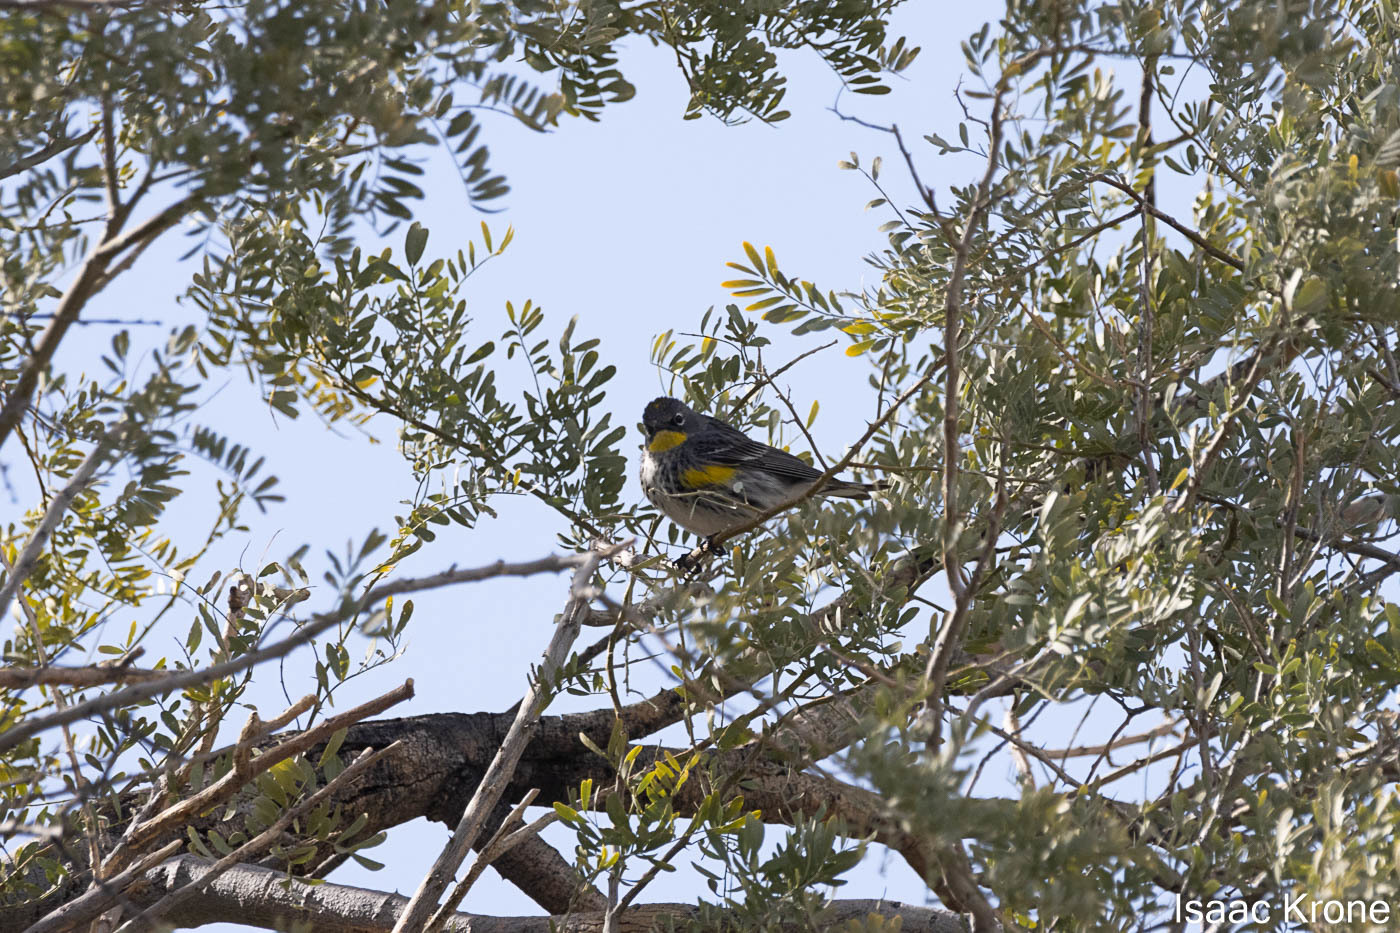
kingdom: Animalia
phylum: Chordata
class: Aves
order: Passeriformes
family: Parulidae
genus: Setophaga
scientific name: Setophaga coronata
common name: Myrtle warbler
